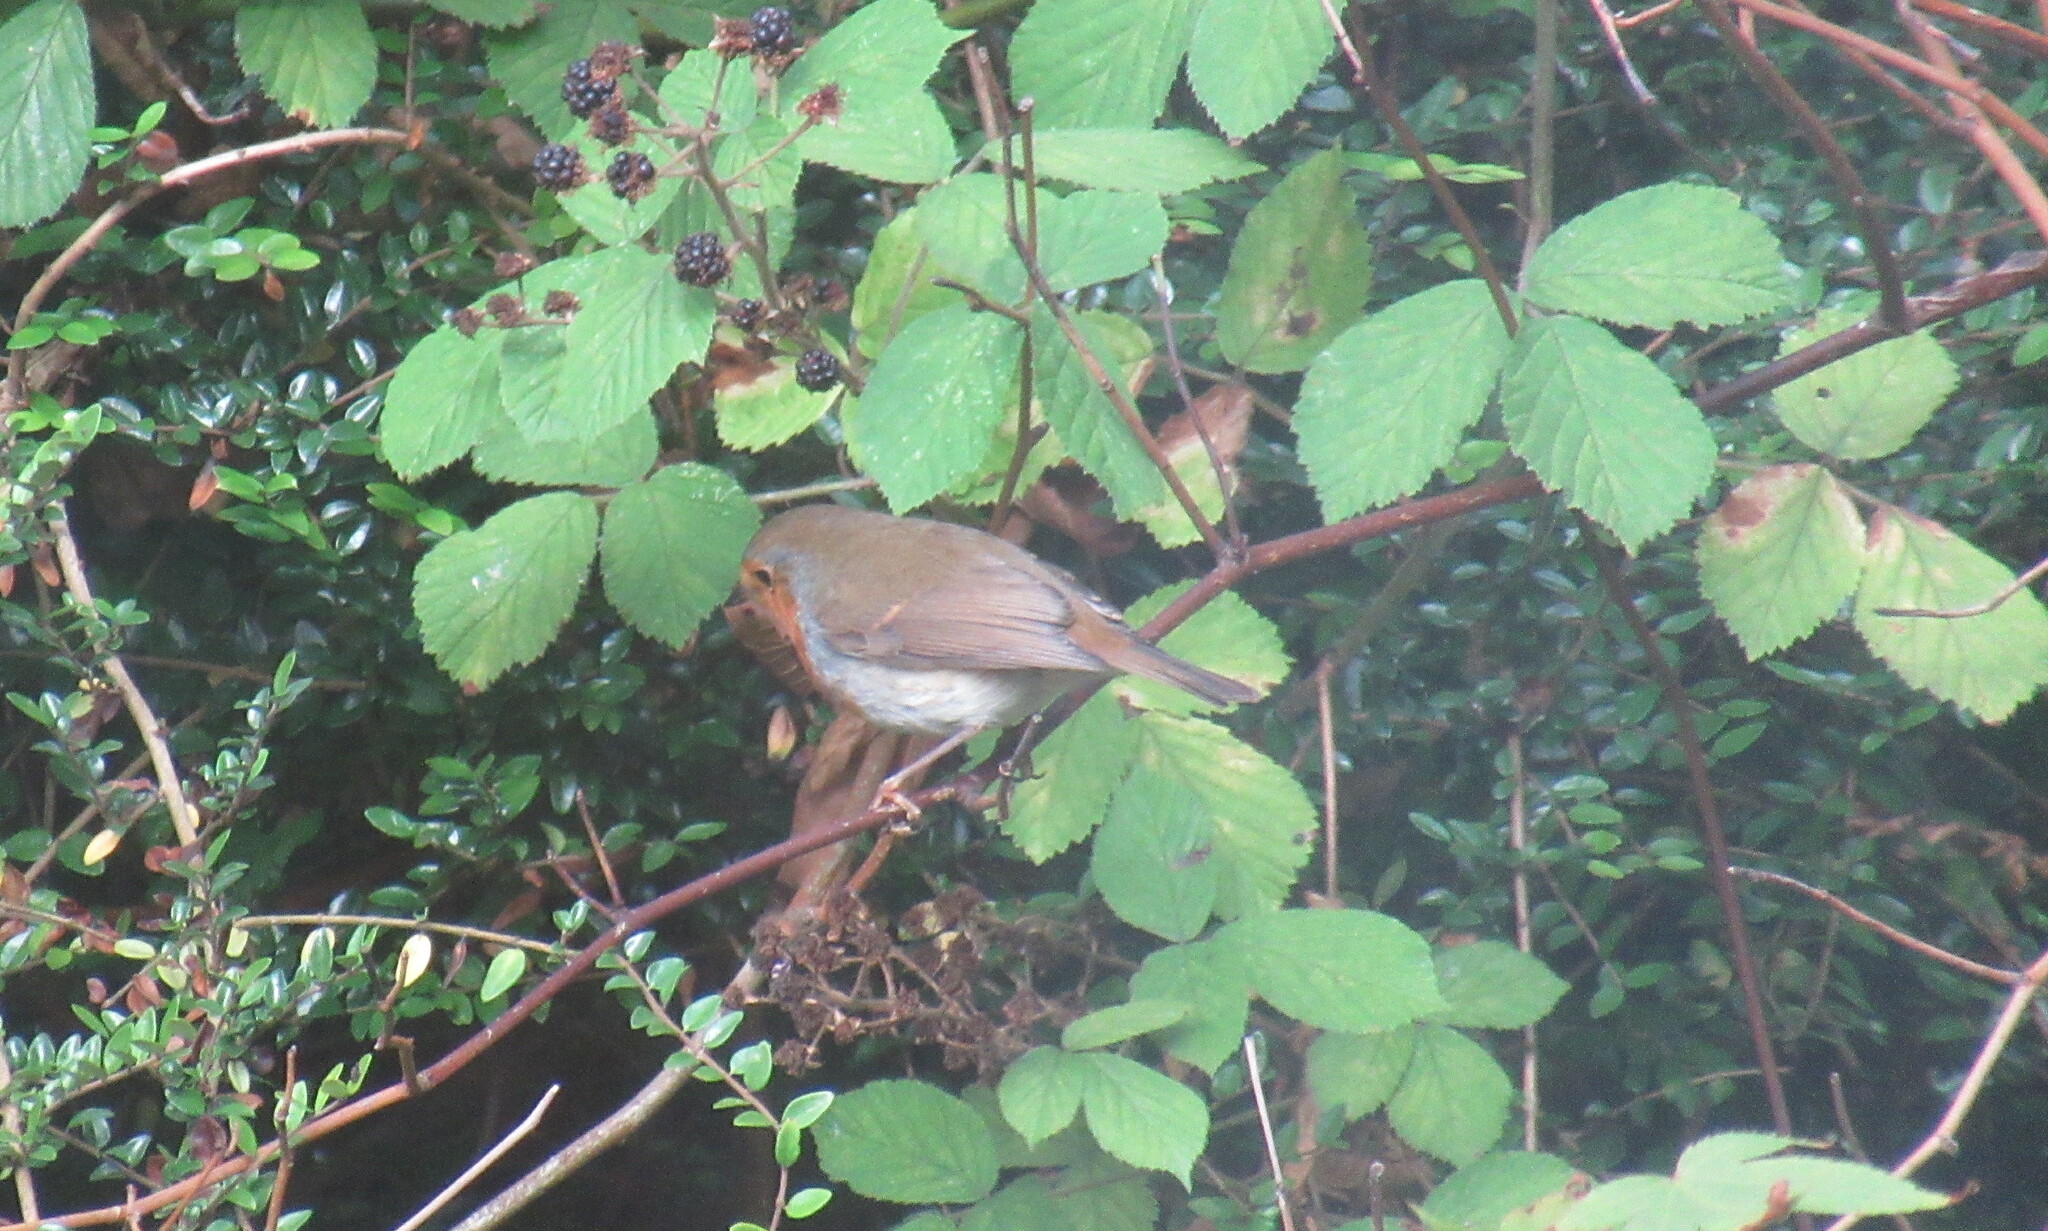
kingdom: Animalia
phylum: Chordata
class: Aves
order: Passeriformes
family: Muscicapidae
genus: Erithacus
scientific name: Erithacus rubecula
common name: European robin
